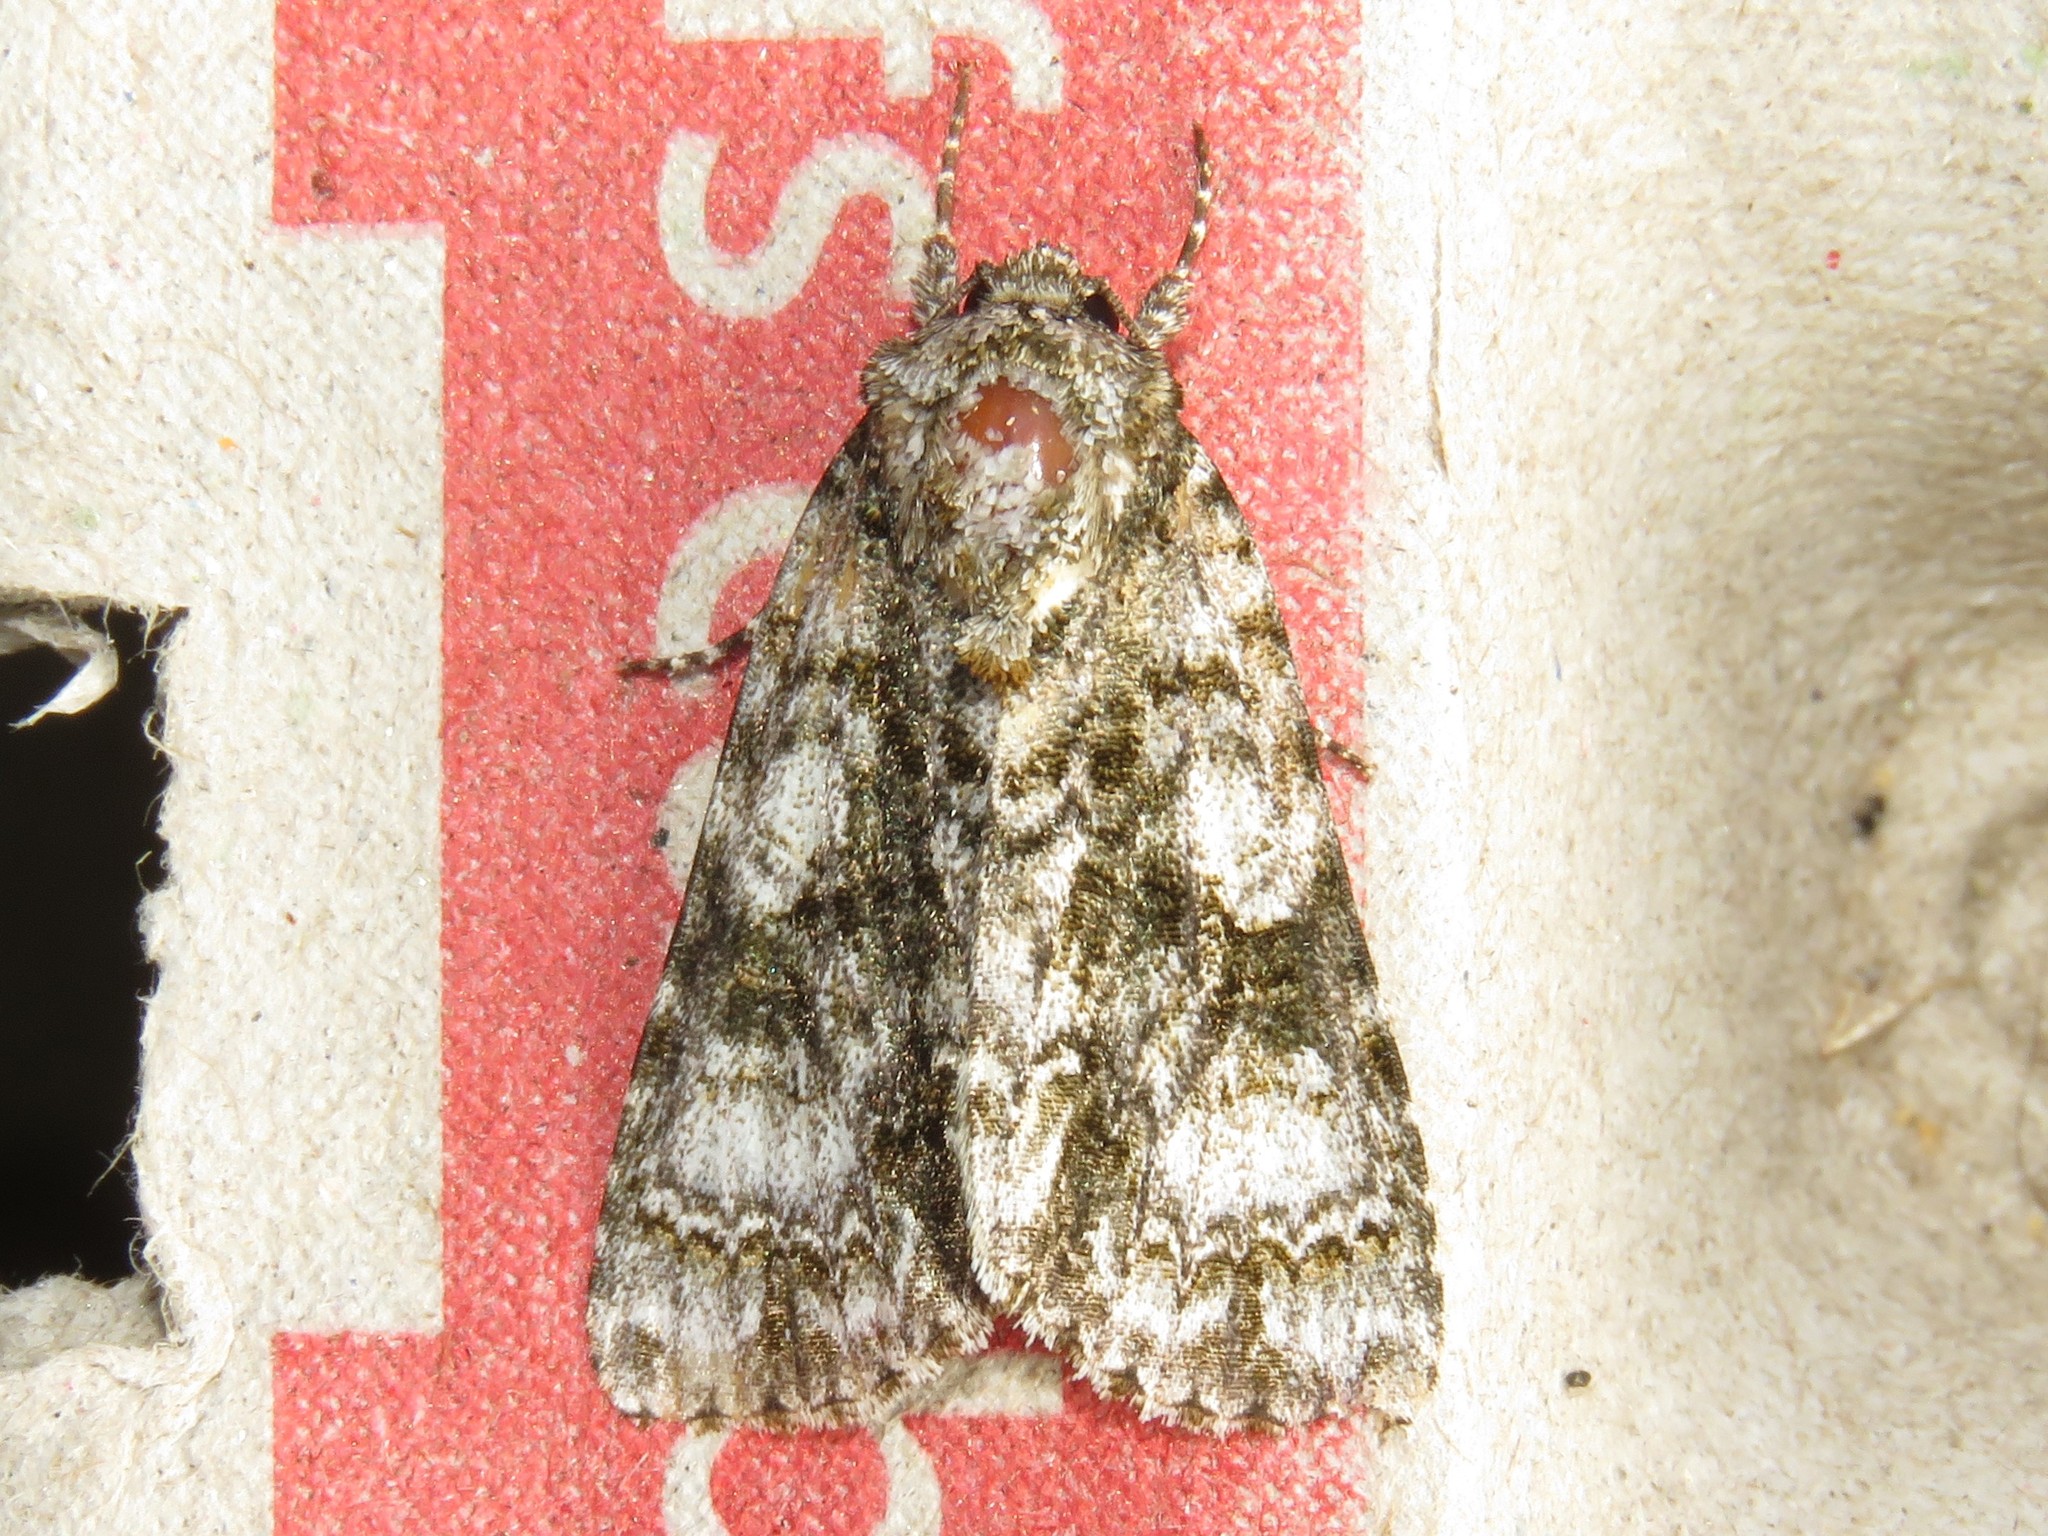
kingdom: Animalia
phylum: Arthropoda
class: Insecta
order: Lepidoptera
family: Noctuidae
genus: Acronicta
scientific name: Acronicta superans
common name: Splendid dagger
